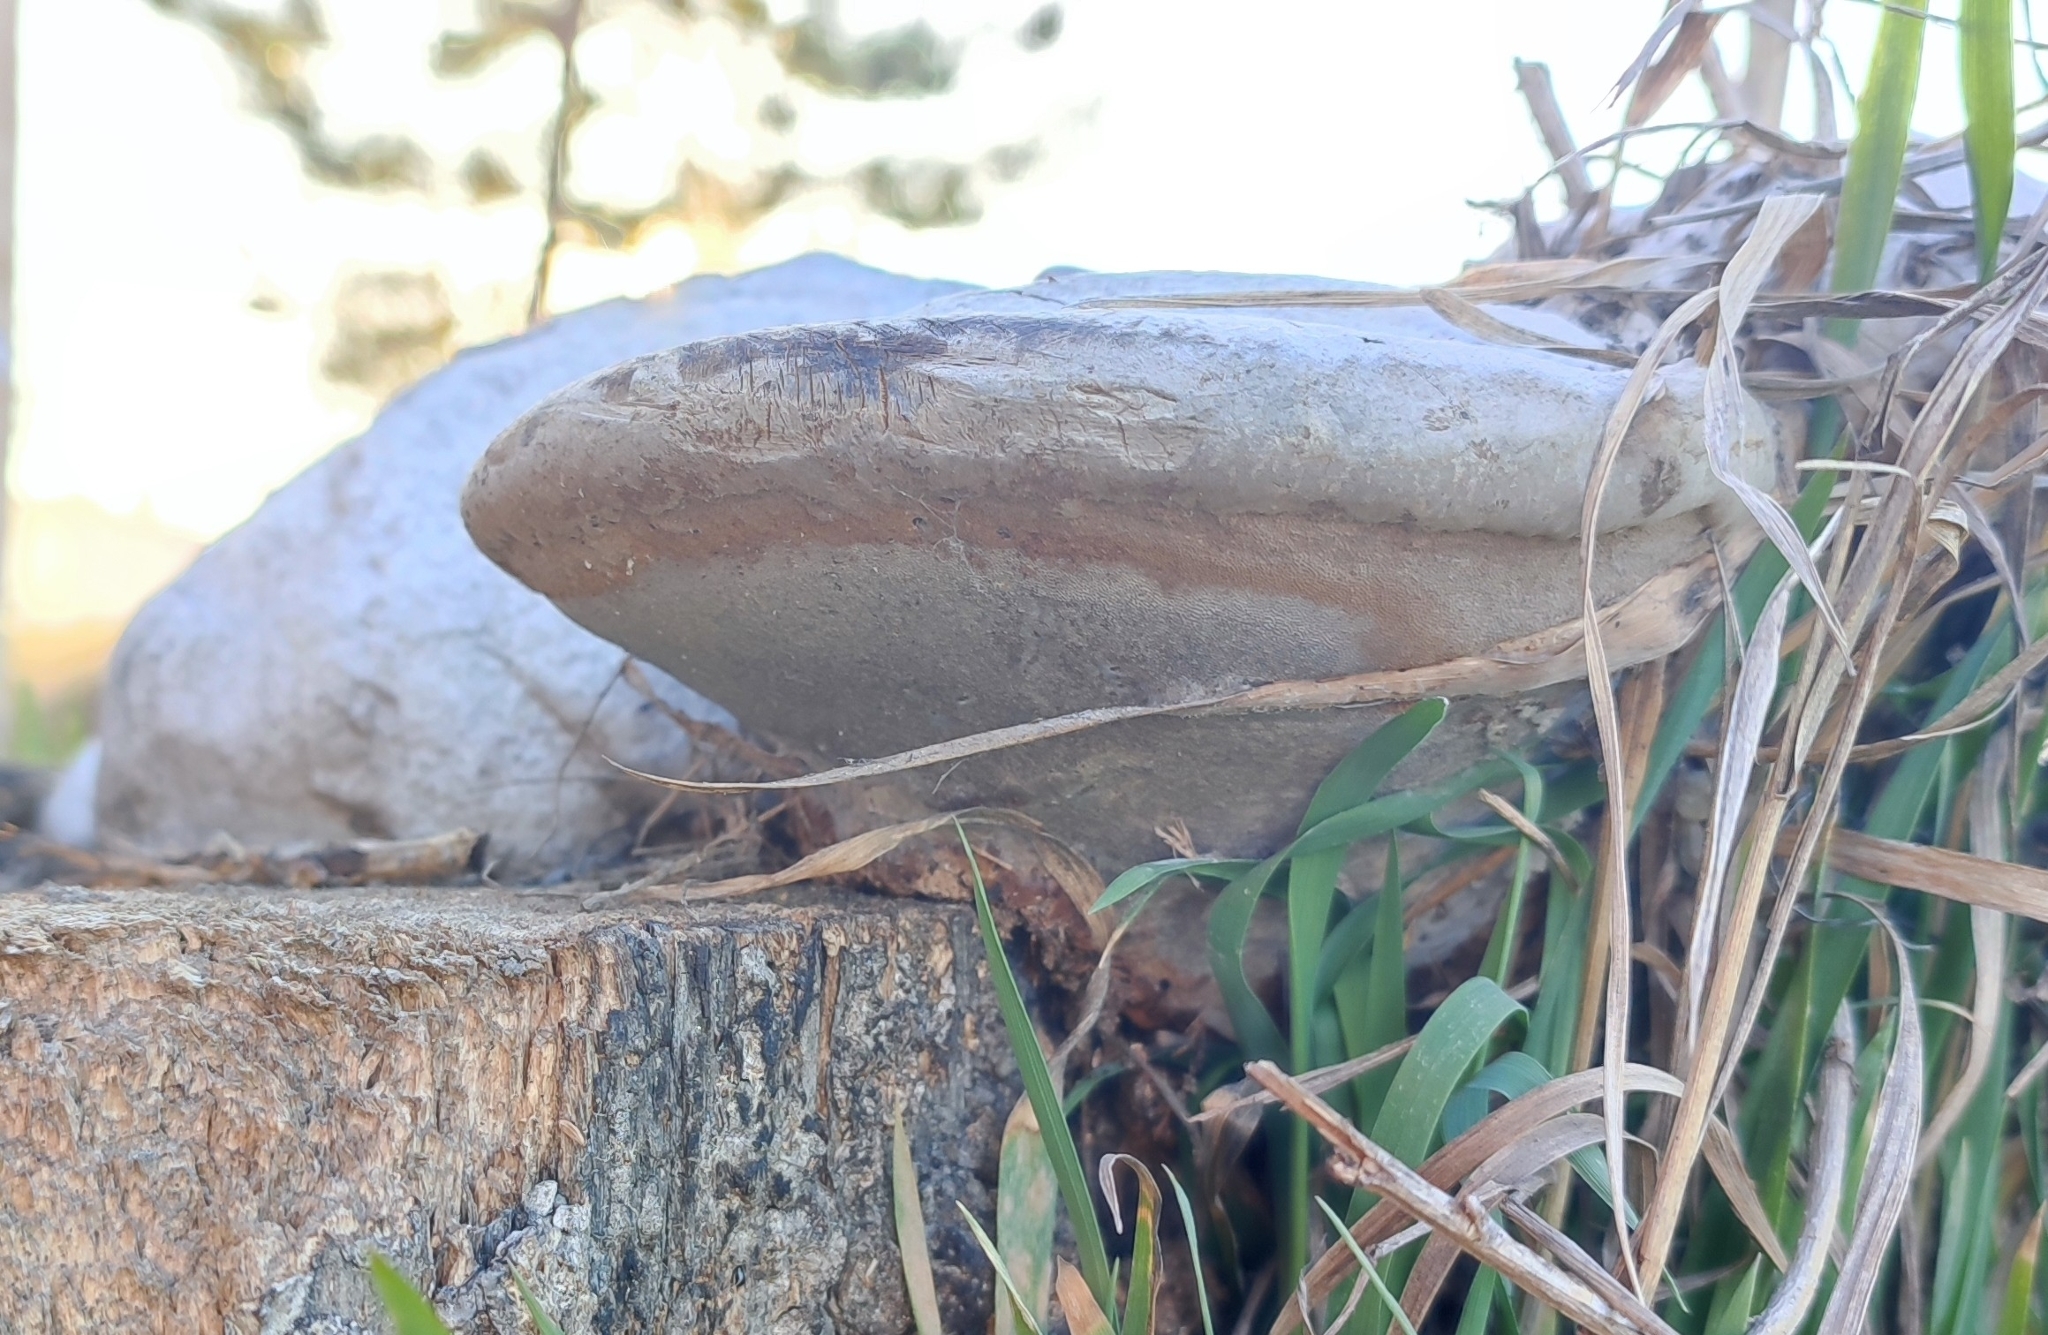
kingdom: Fungi
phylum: Basidiomycota
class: Agaricomycetes
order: Polyporales
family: Polyporaceae
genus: Fomes
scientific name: Fomes fomentarius
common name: Hoof fungus
